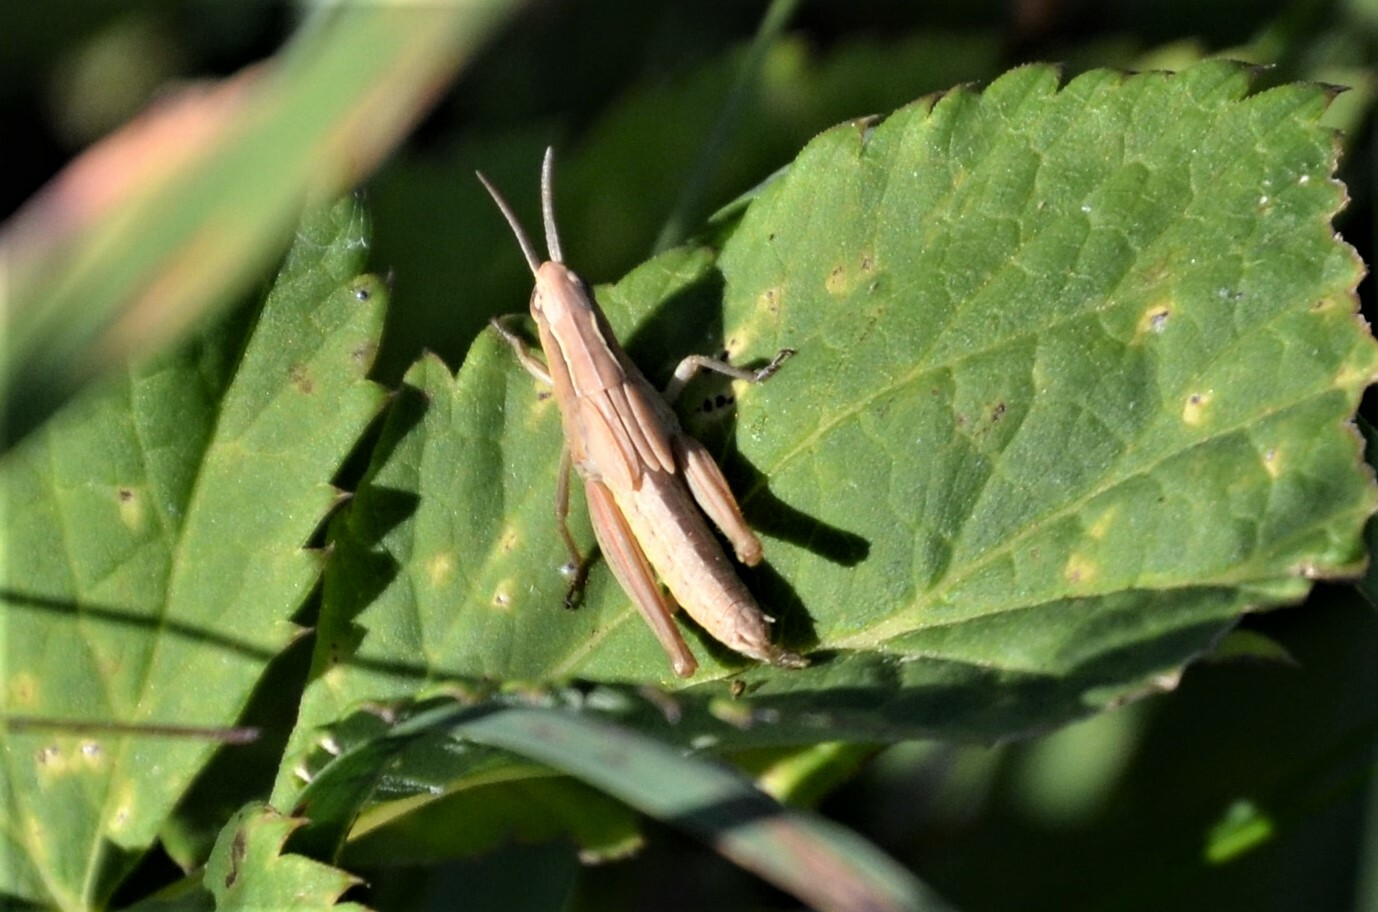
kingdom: Animalia
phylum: Arthropoda
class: Insecta
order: Orthoptera
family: Acrididae
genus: Chorthippus
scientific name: Chorthippus albomarginatus
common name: Lesser marsh grasshopper
